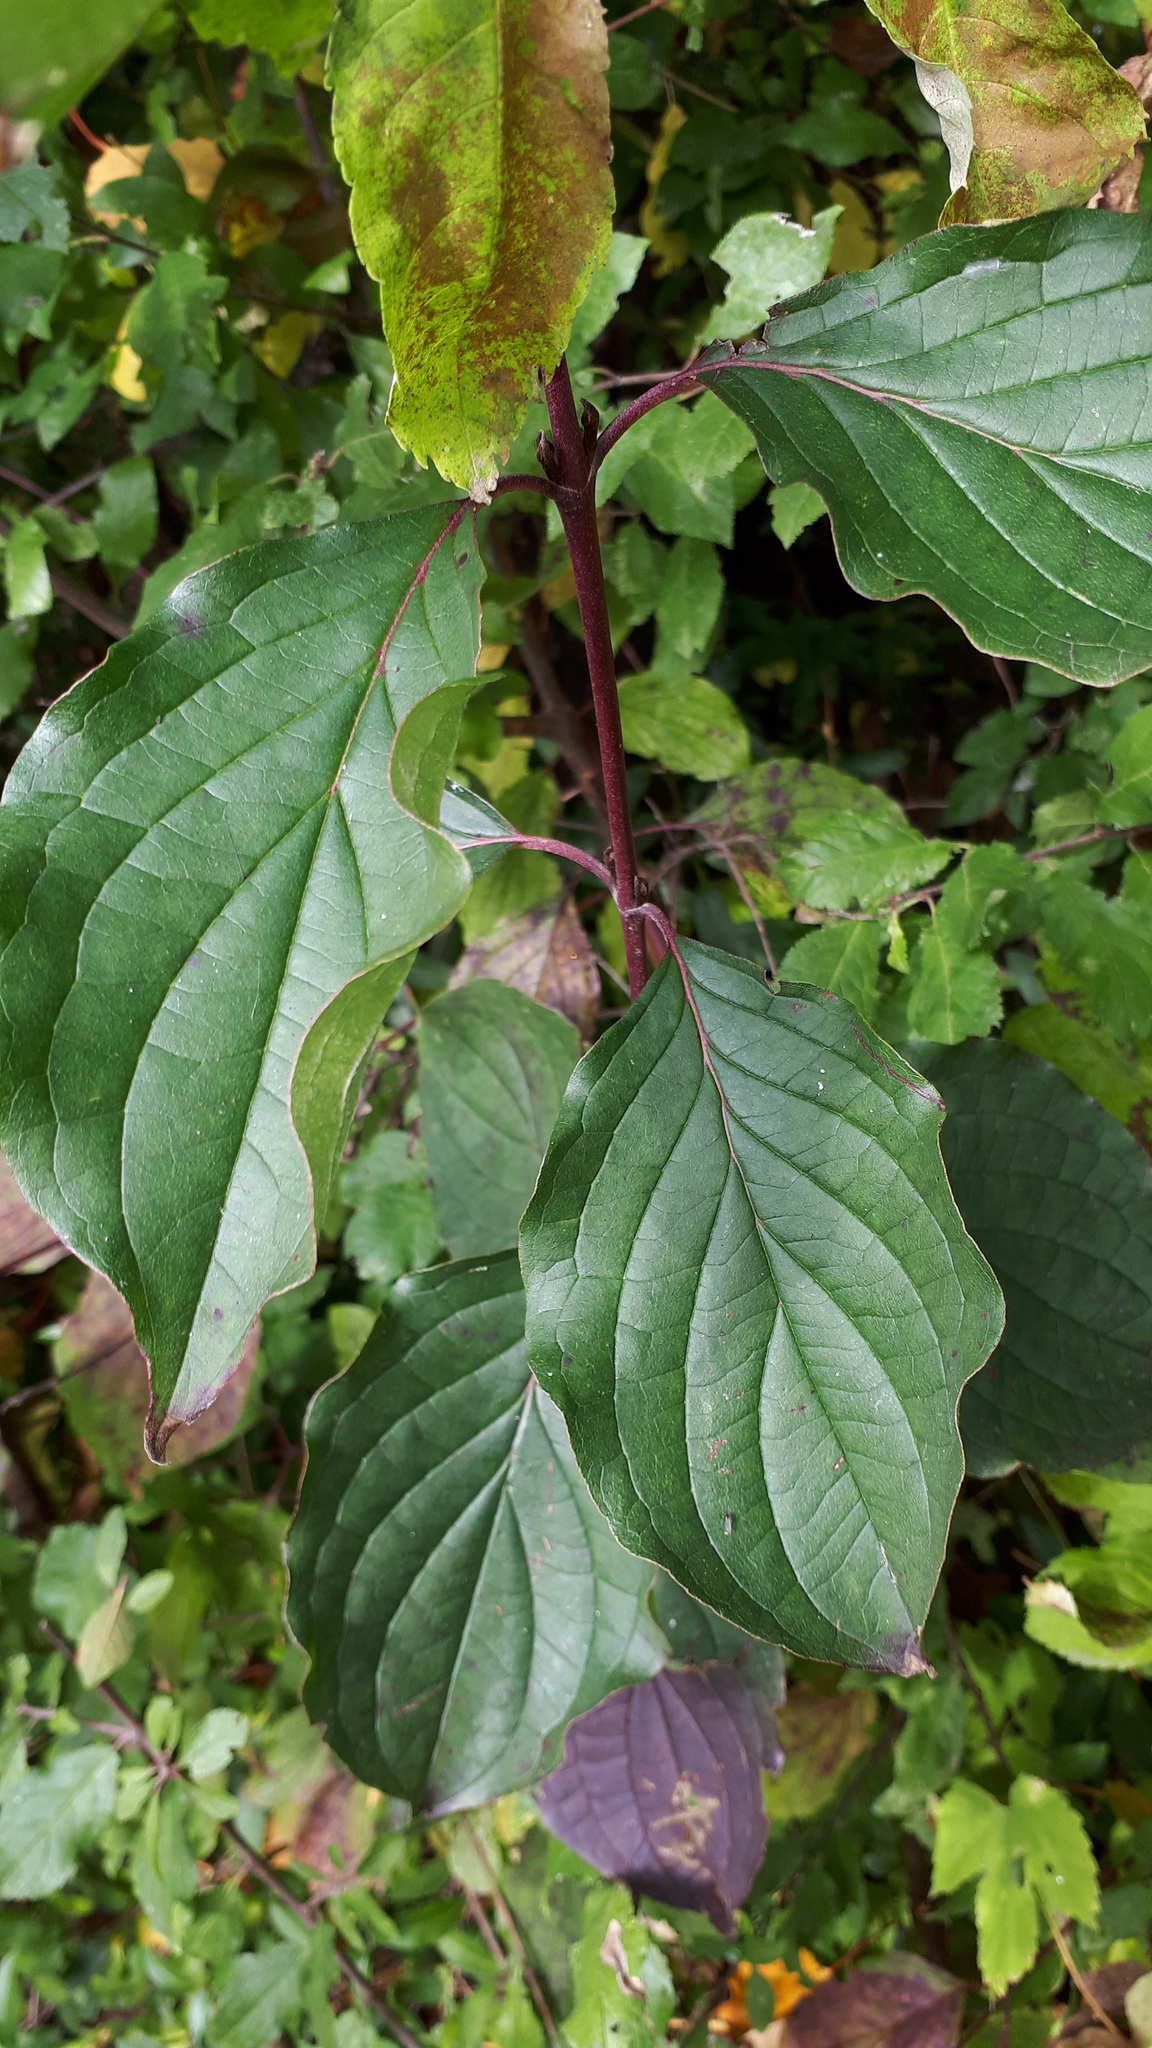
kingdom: Plantae
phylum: Tracheophyta
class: Magnoliopsida
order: Cornales
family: Cornaceae
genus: Cornus
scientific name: Cornus sanguinea
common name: Dogwood
